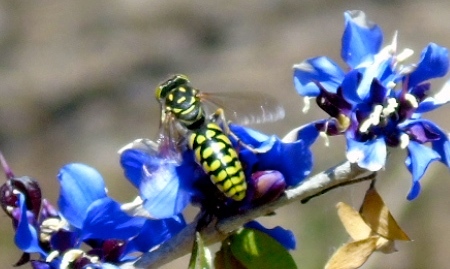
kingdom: Animalia
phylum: Arthropoda
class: Insecta
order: Hymenoptera
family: Crabronidae
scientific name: Crabronidae
